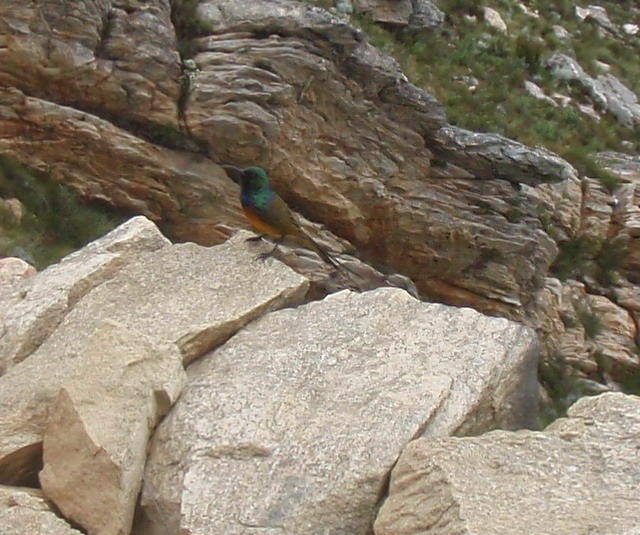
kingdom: Animalia
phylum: Chordata
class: Aves
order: Passeriformes
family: Nectariniidae
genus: Anthobaphes
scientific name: Anthobaphes violacea
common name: Orange-breasted sunbird
